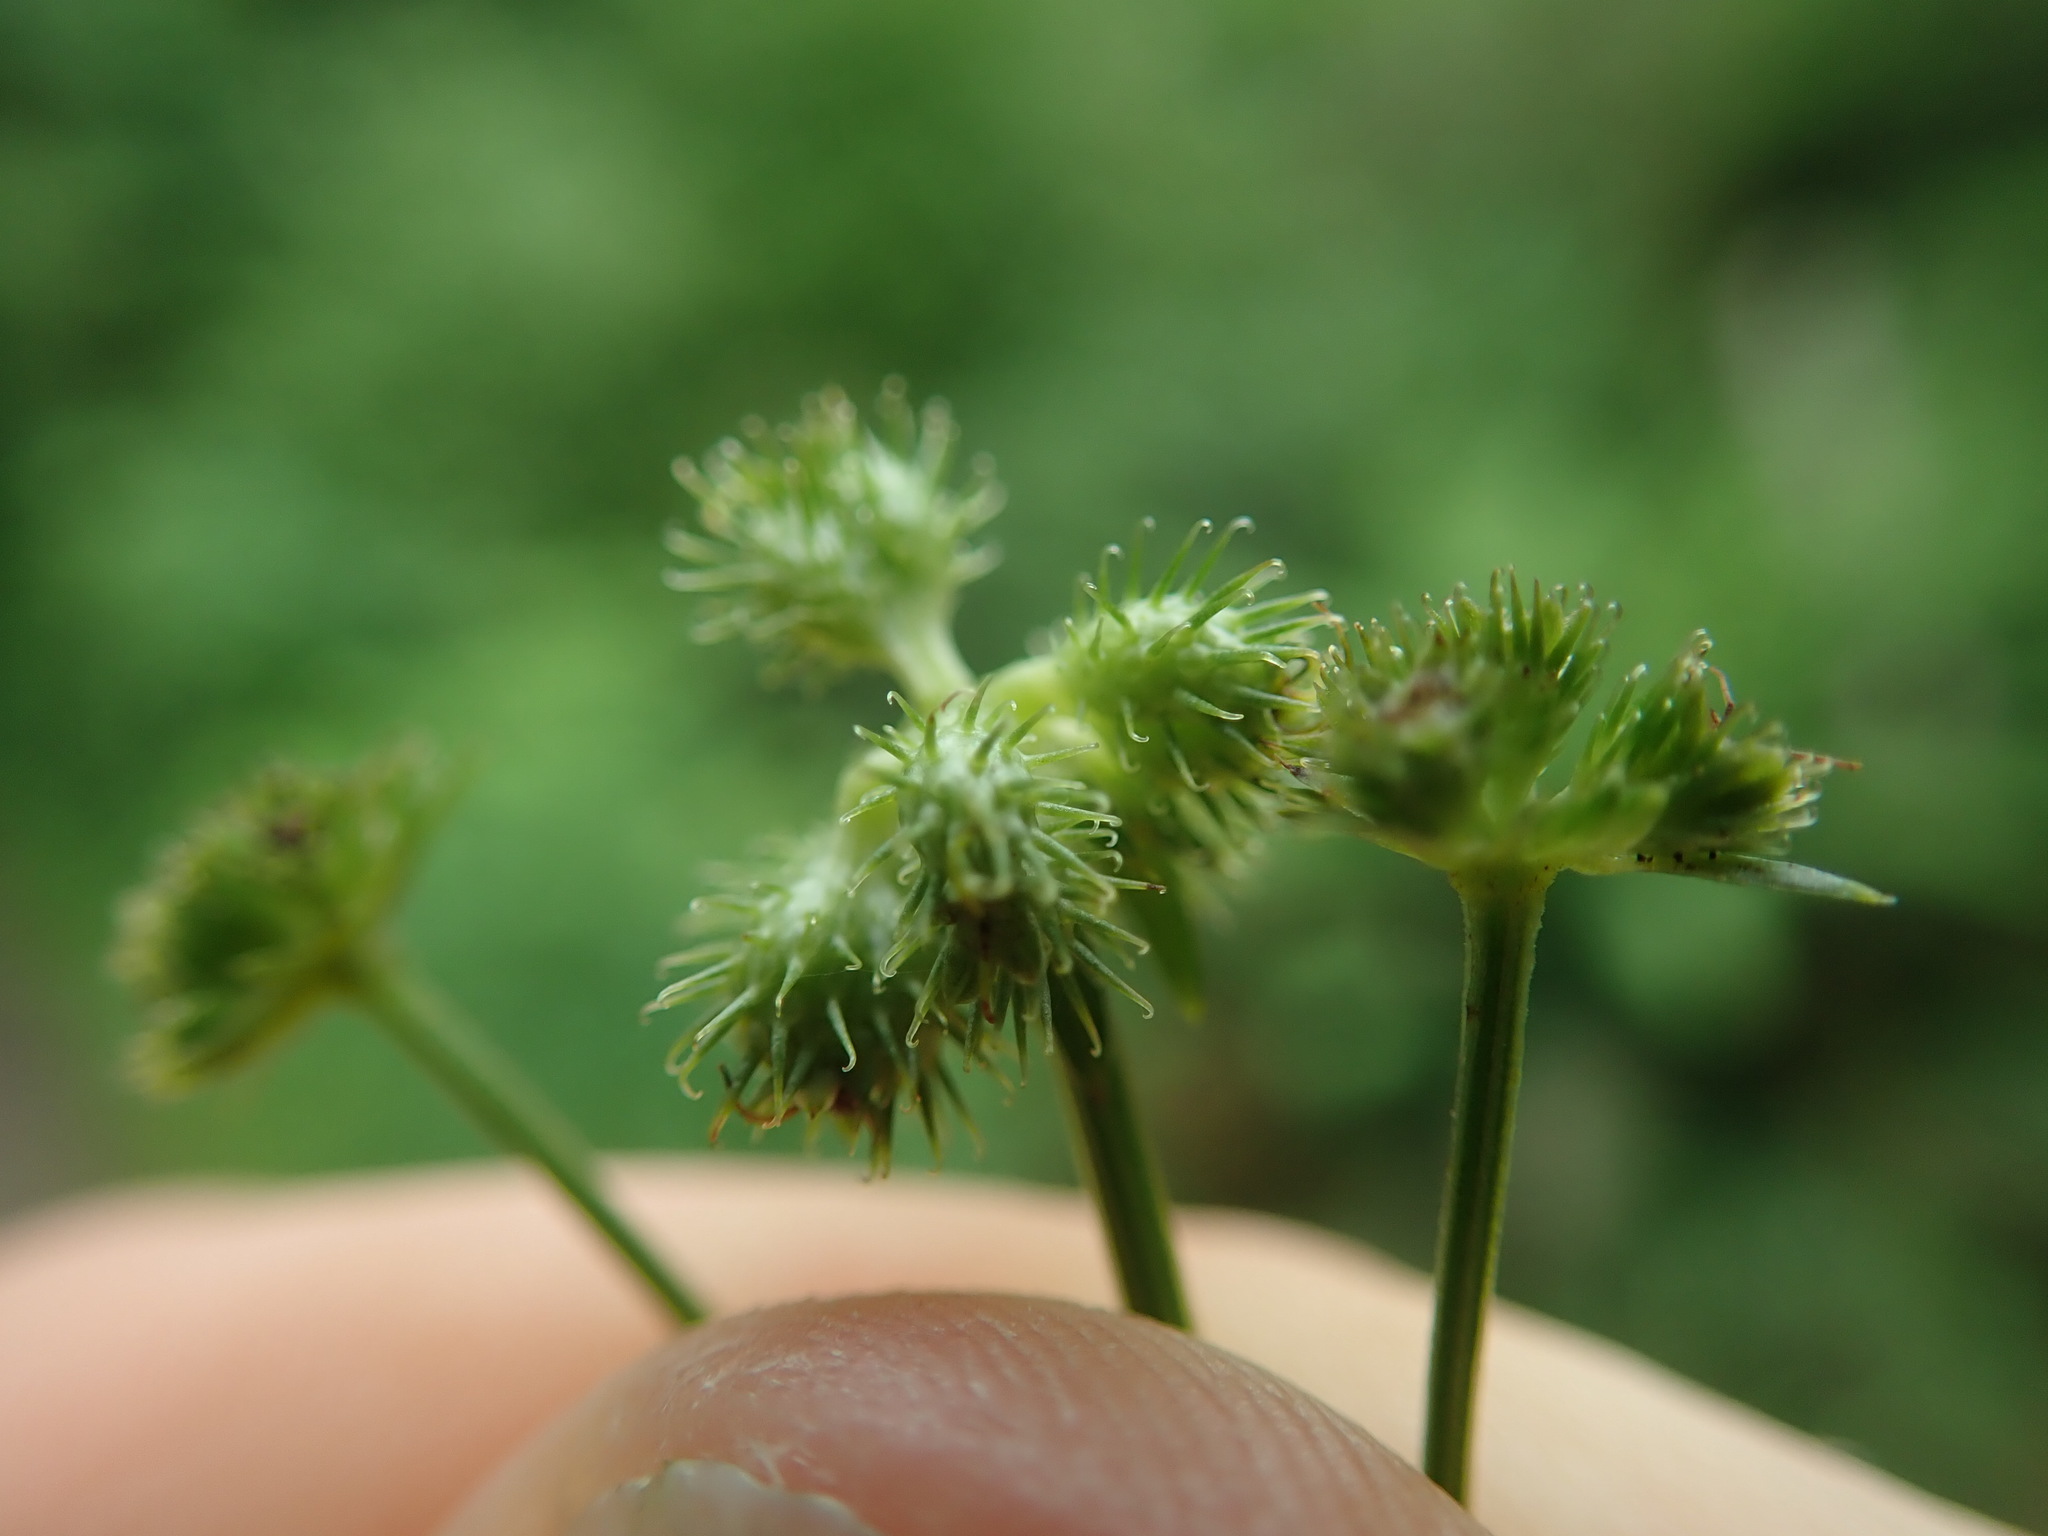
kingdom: Plantae
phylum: Tracheophyta
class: Magnoliopsida
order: Apiales
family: Apiaceae
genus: Sanicula
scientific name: Sanicula crassicaulis
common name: Western snakeroot
